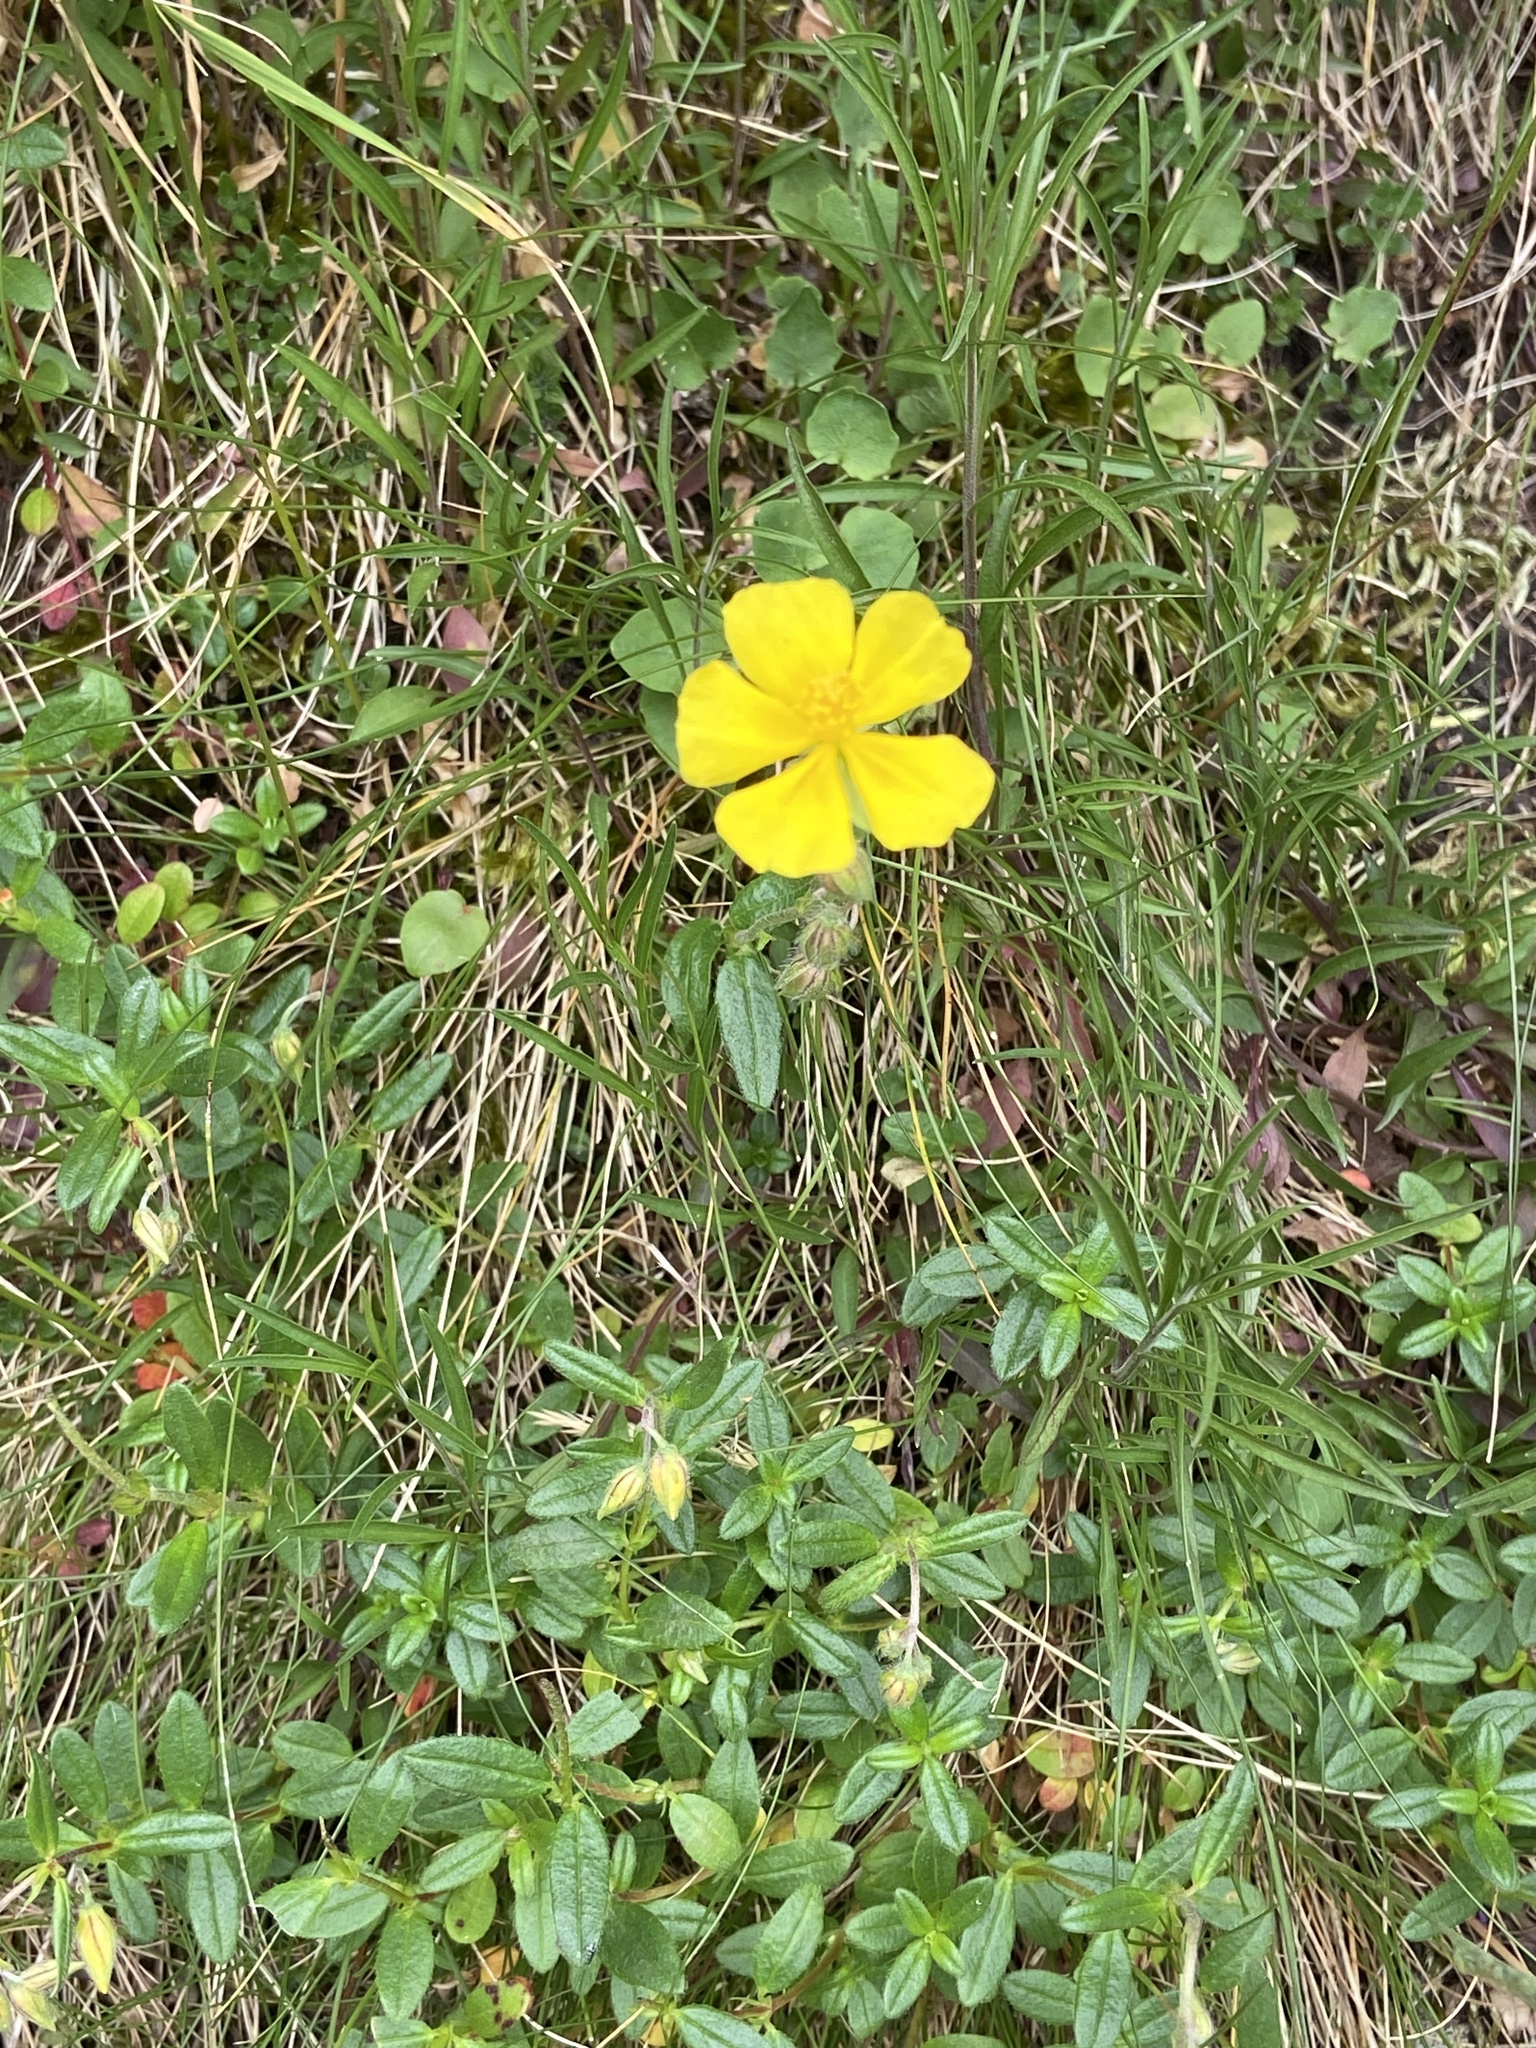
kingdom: Plantae
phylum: Tracheophyta
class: Magnoliopsida
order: Malvales
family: Cistaceae
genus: Helianthemum
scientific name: Helianthemum nummularium
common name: Common rock-rose
